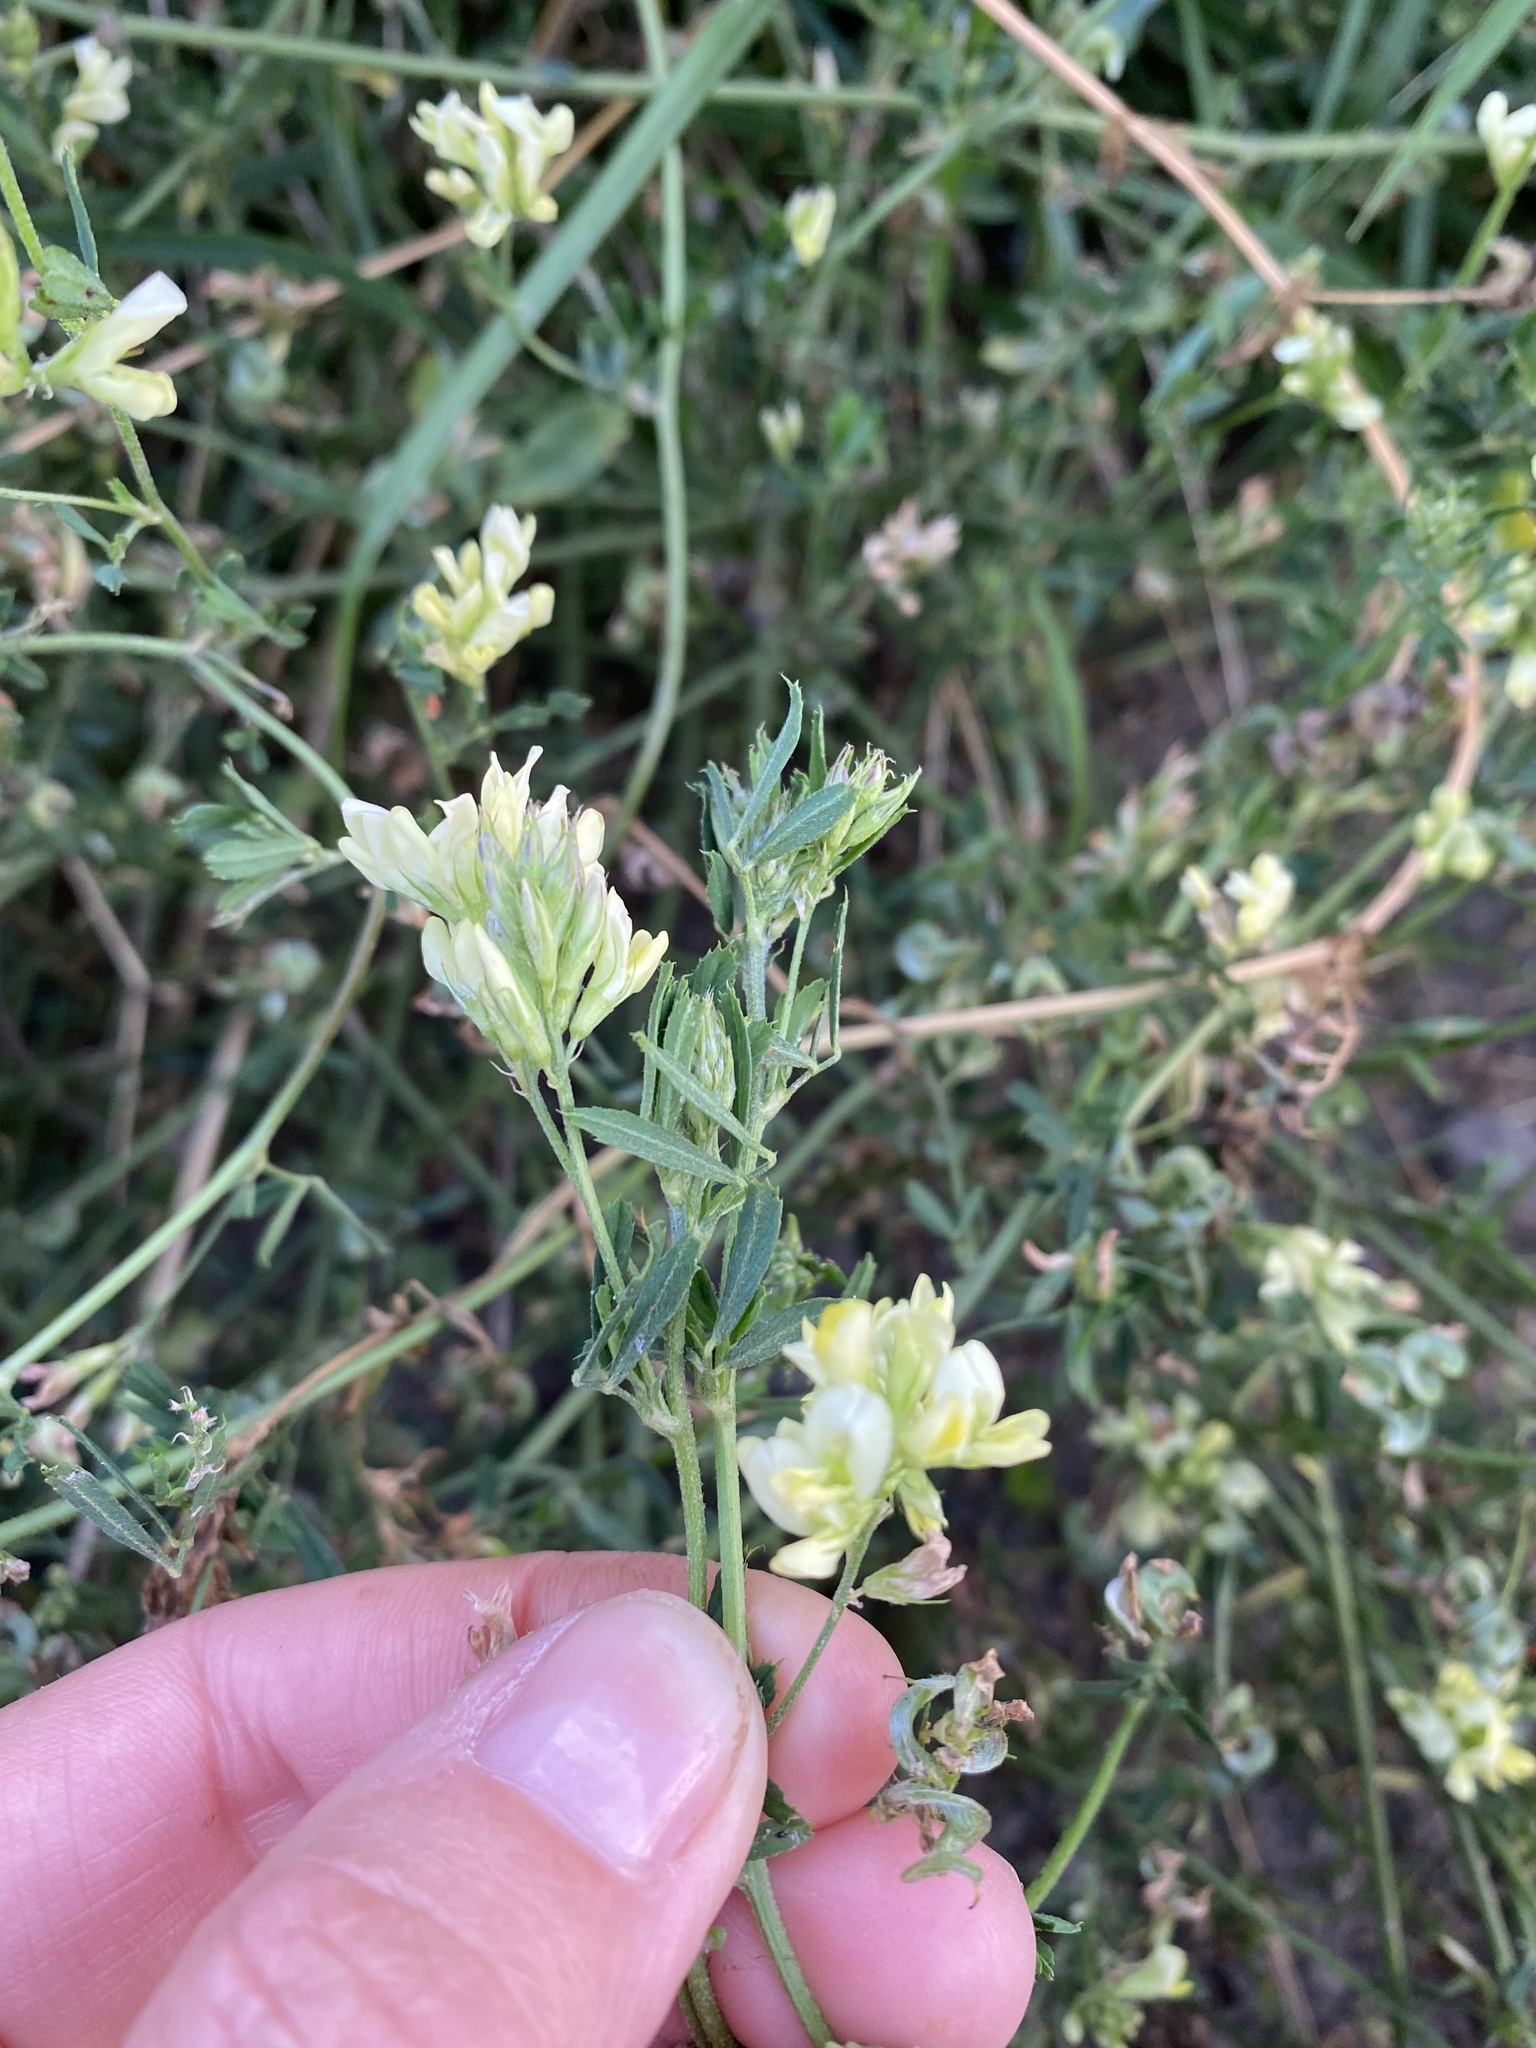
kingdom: Plantae
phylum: Tracheophyta
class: Magnoliopsida
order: Fabales
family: Fabaceae
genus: Medicago
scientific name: Medicago varia
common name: Sand lucerne
